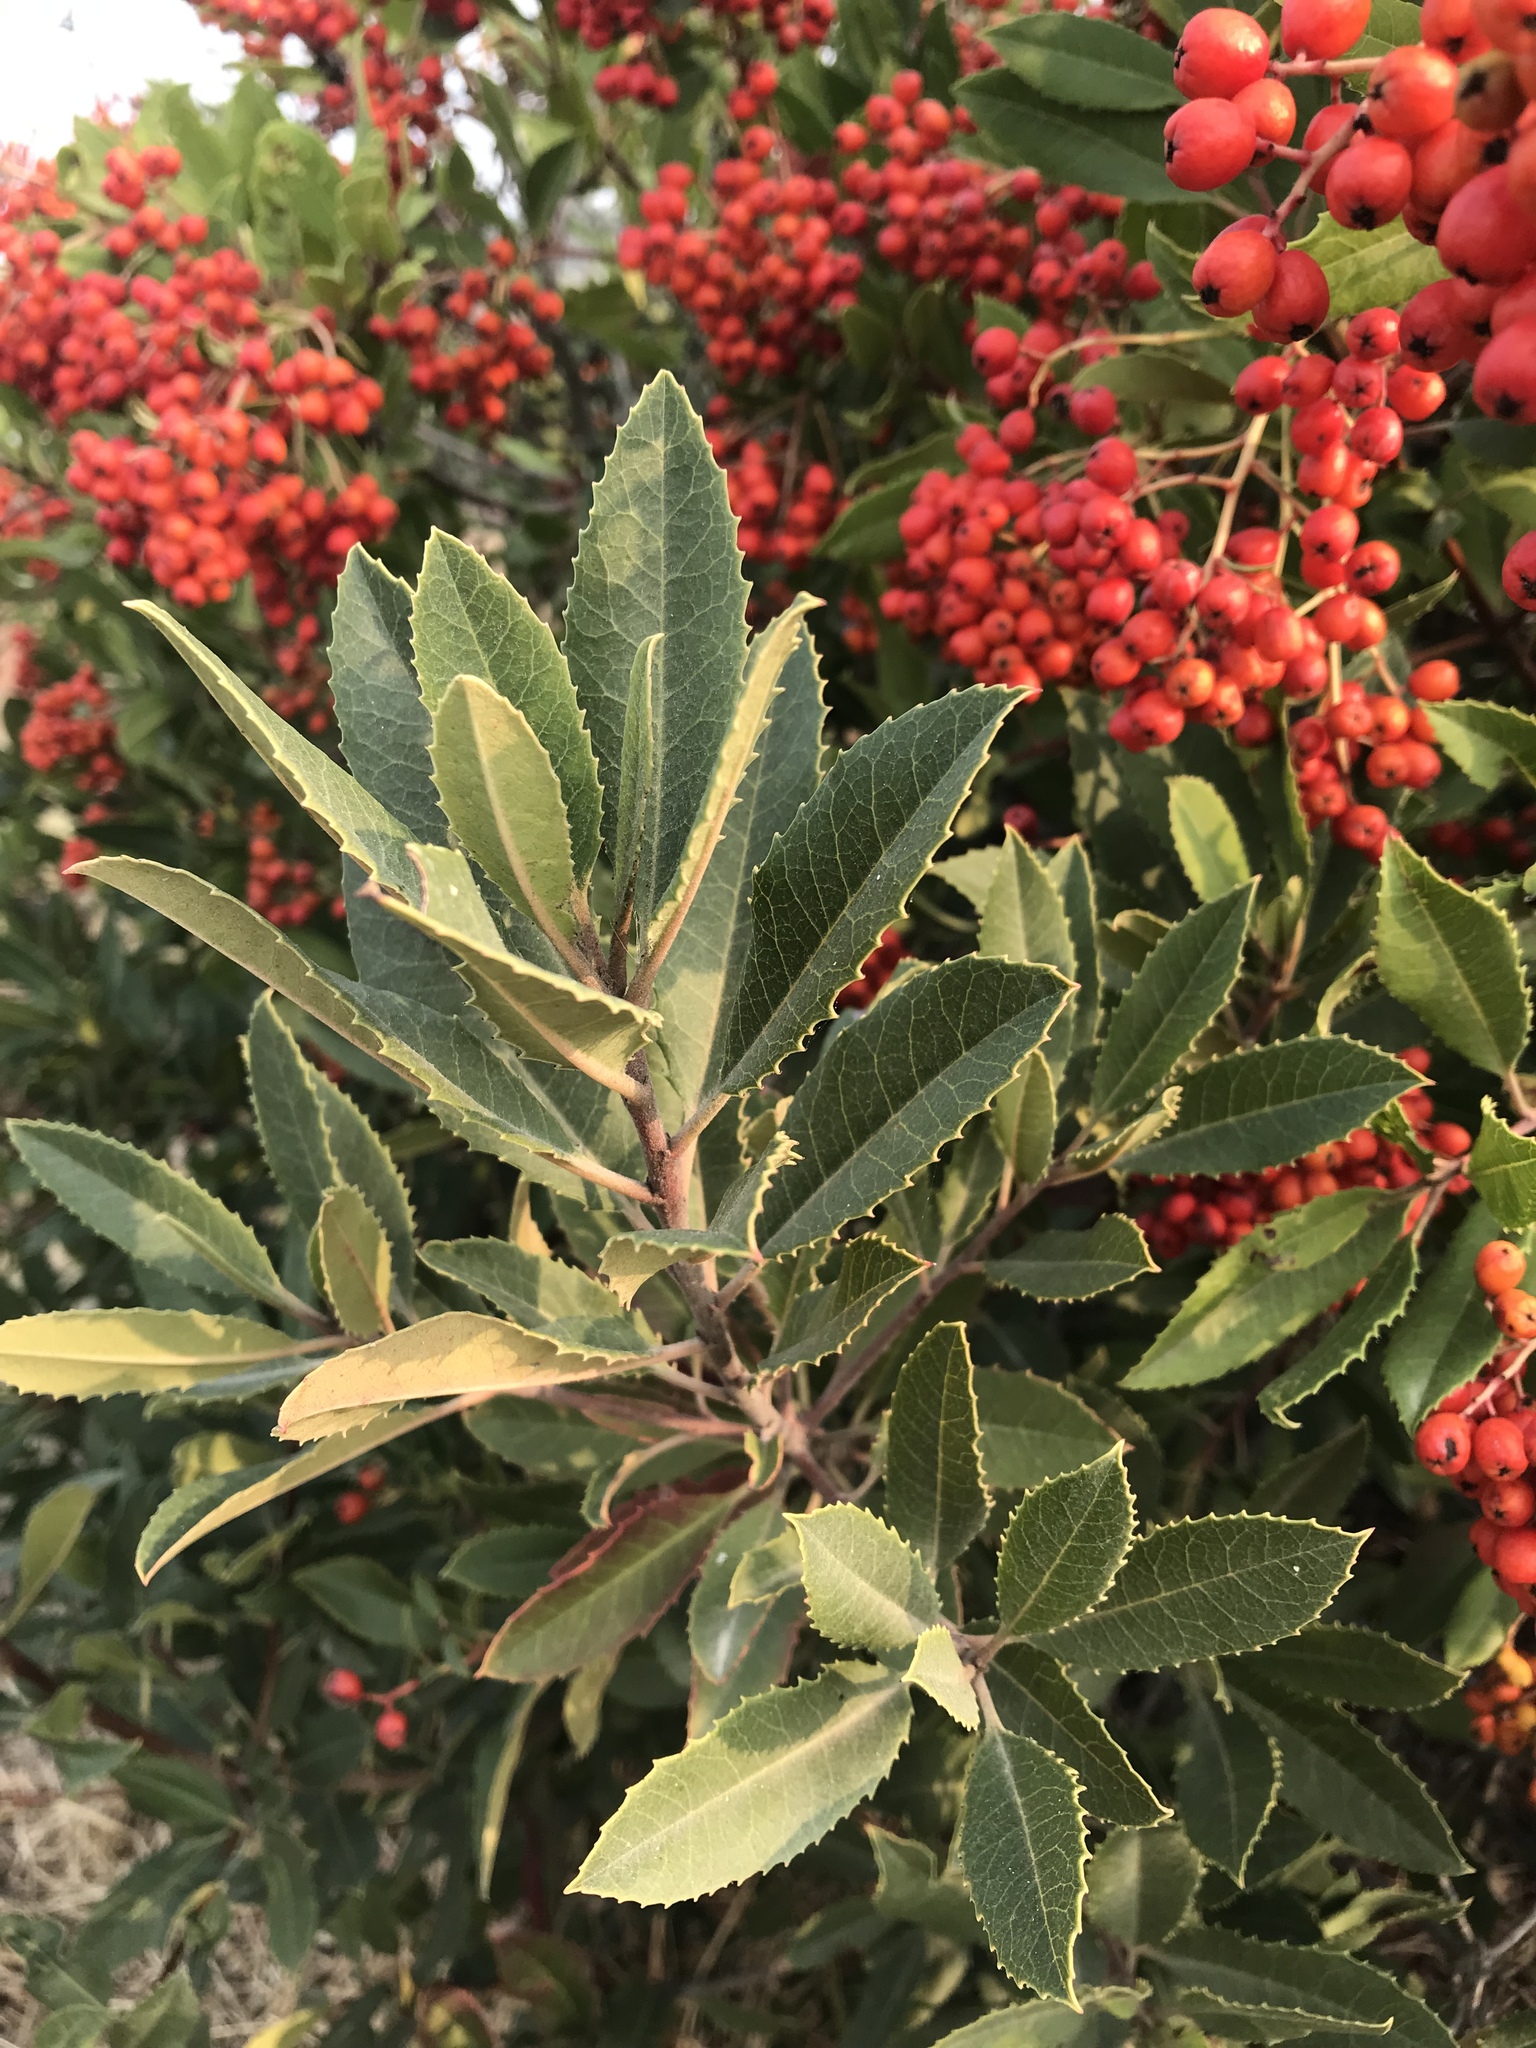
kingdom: Plantae
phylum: Tracheophyta
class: Magnoliopsida
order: Rosales
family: Rosaceae
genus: Heteromeles
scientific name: Heteromeles arbutifolia
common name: California-holly
